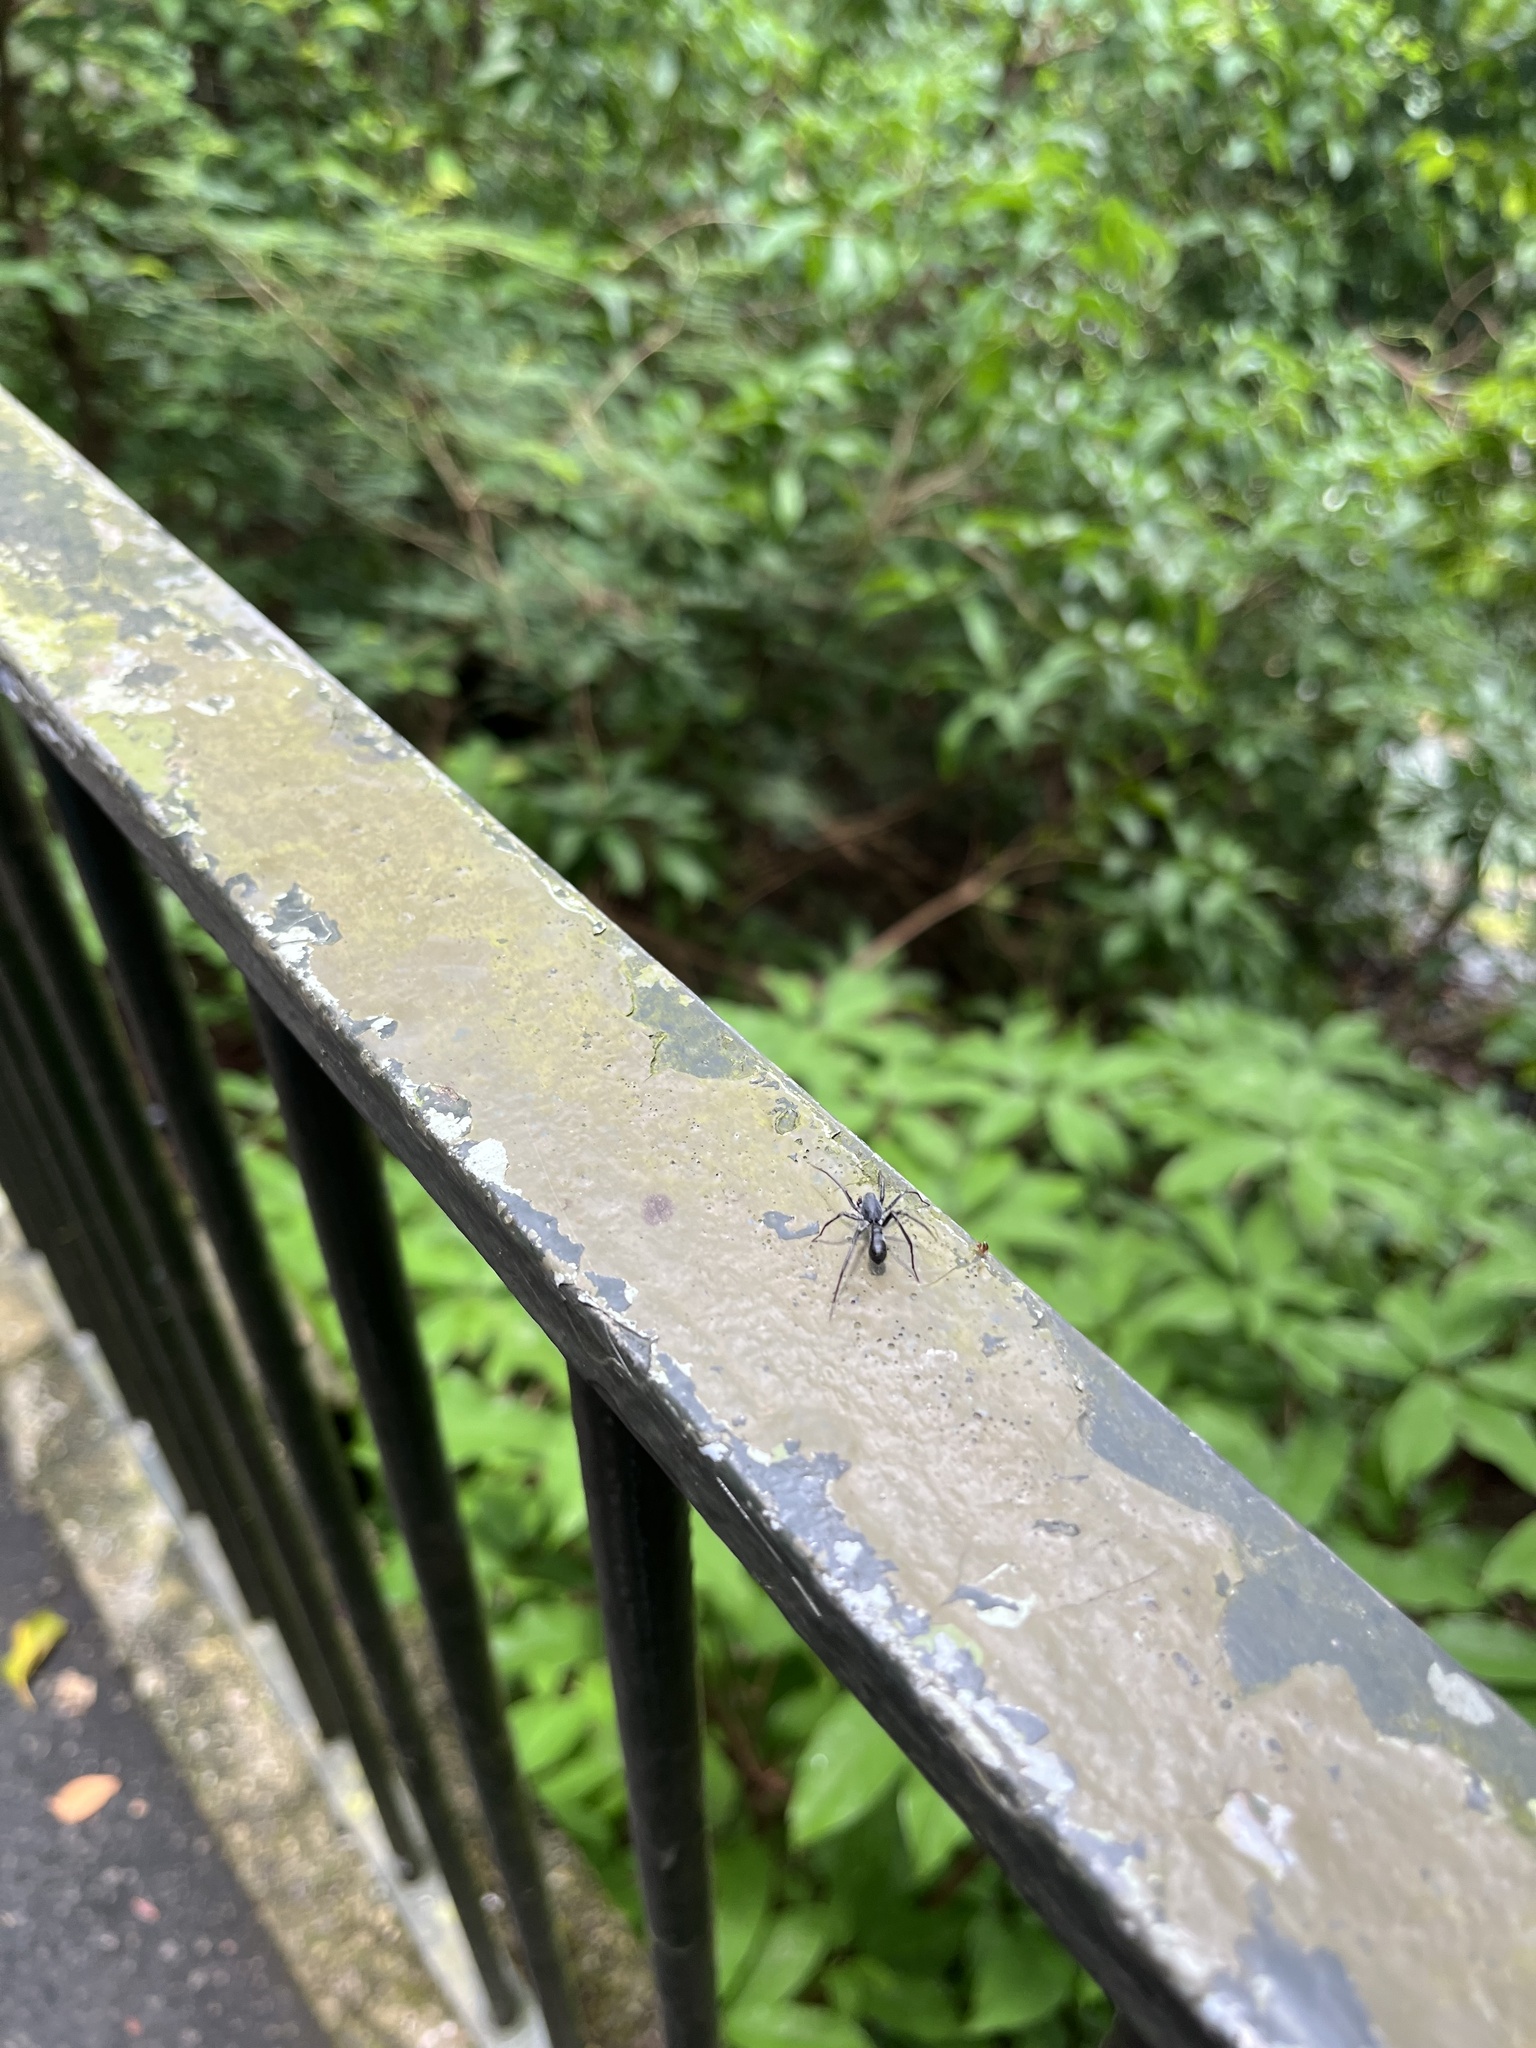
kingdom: Animalia
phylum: Arthropoda
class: Arachnida
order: Araneae
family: Corinnidae
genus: Corinnomma
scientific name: Corinnomma severum
